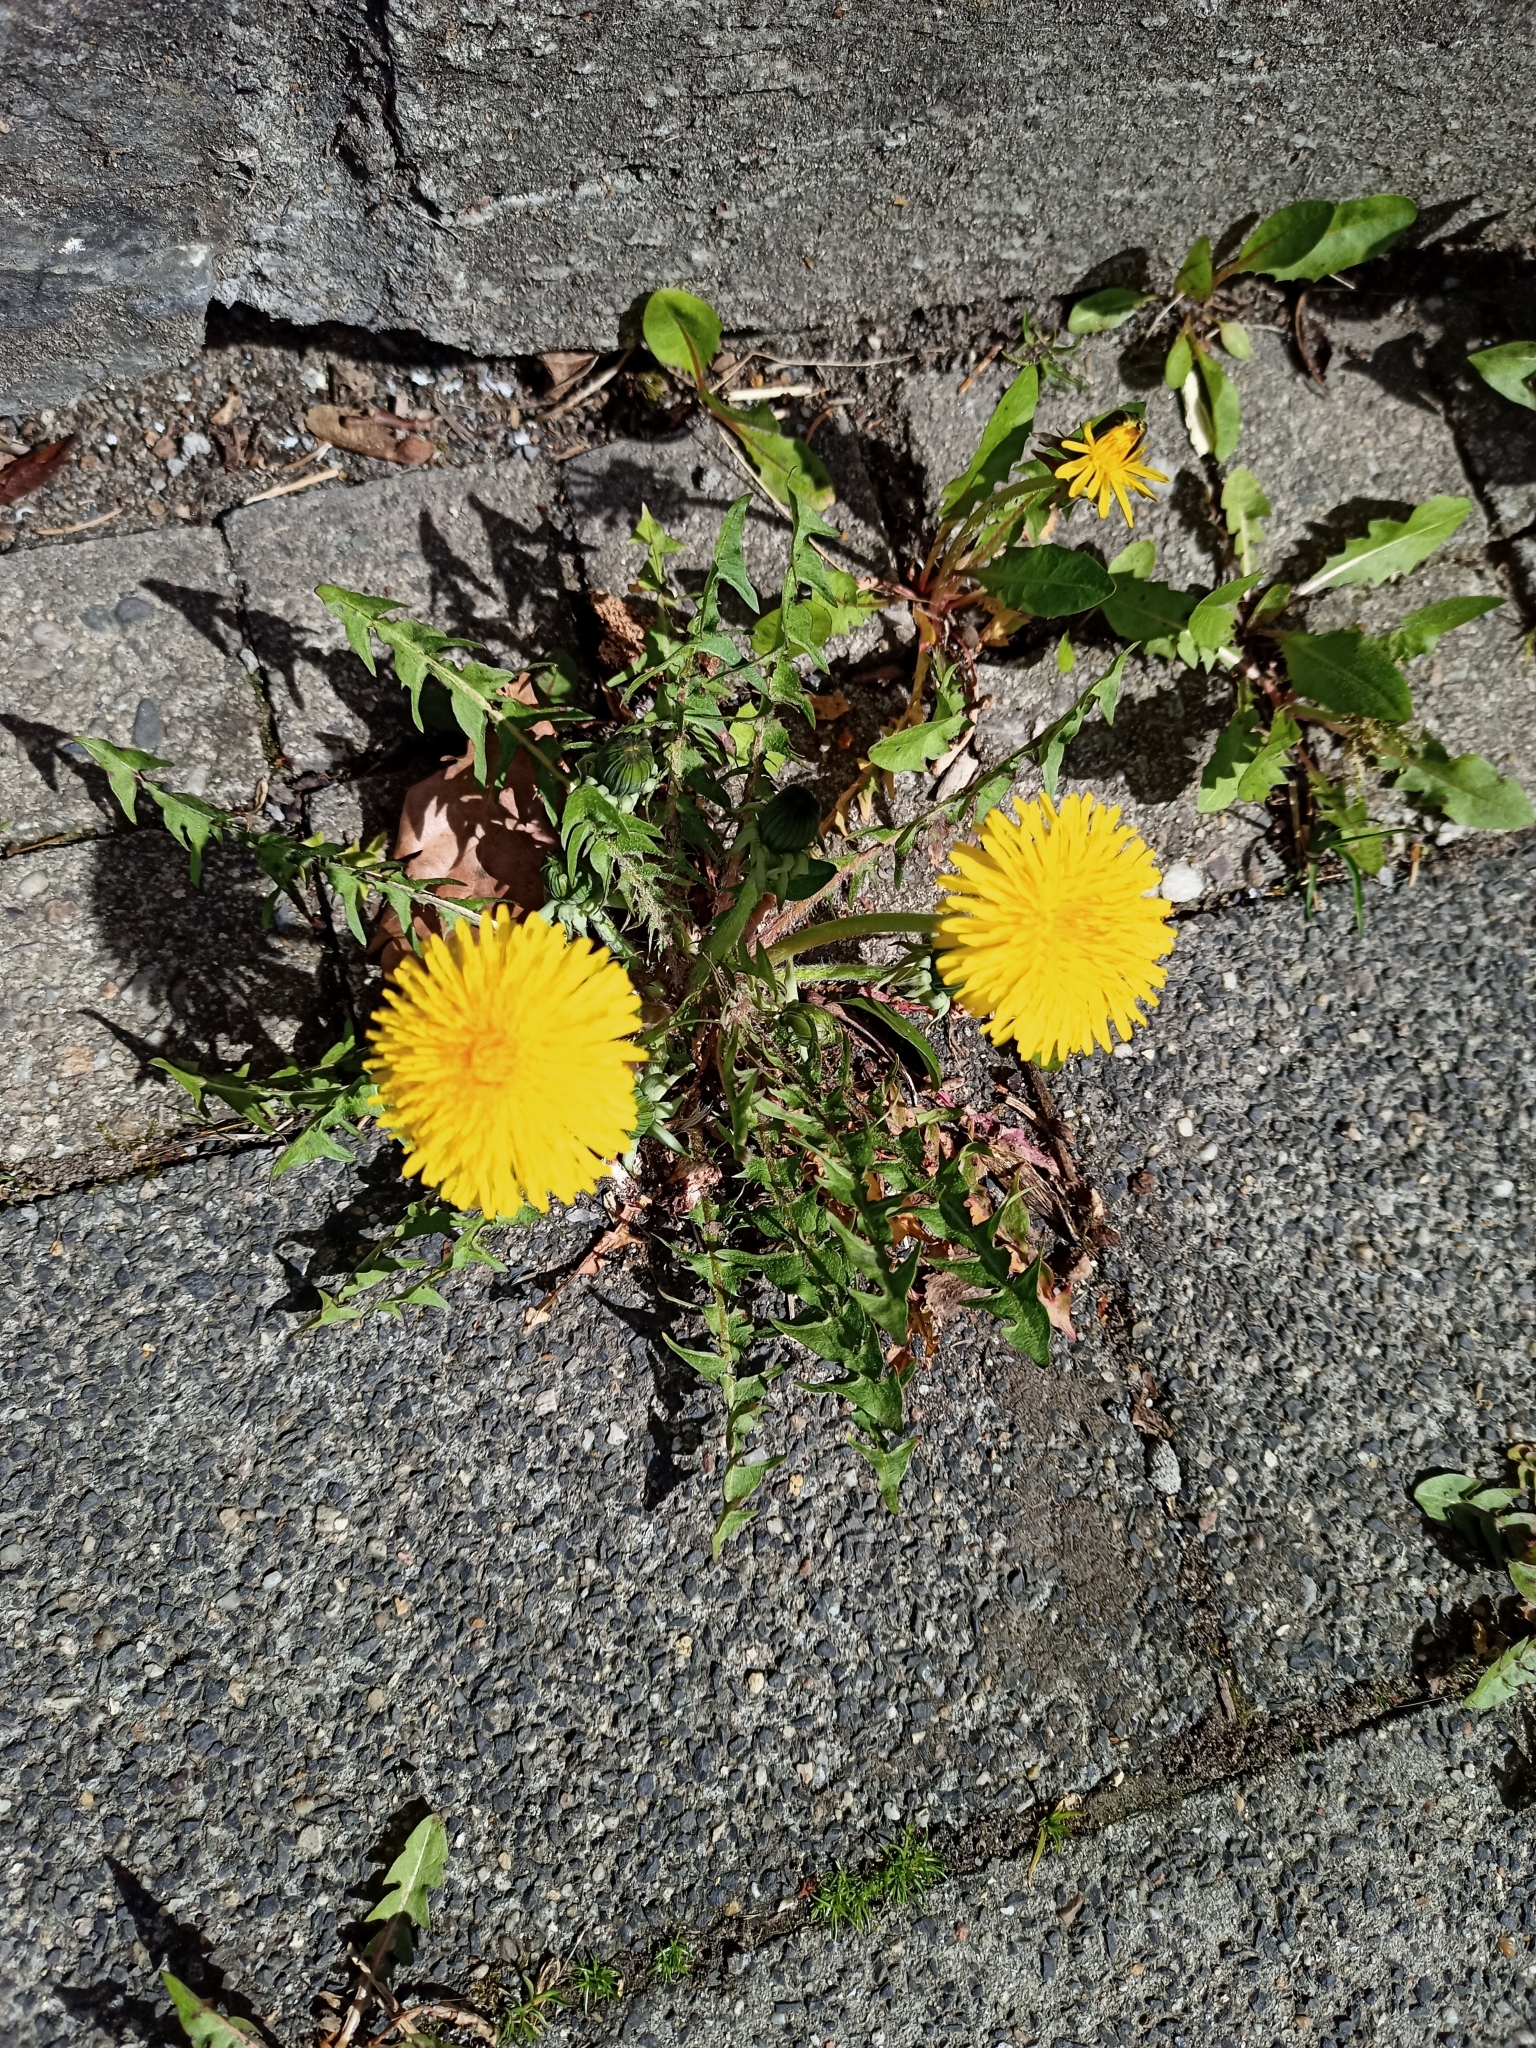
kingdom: Plantae
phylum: Tracheophyta
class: Magnoliopsida
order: Asterales
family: Asteraceae
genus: Taraxacum
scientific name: Taraxacum officinale
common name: Common dandelion
